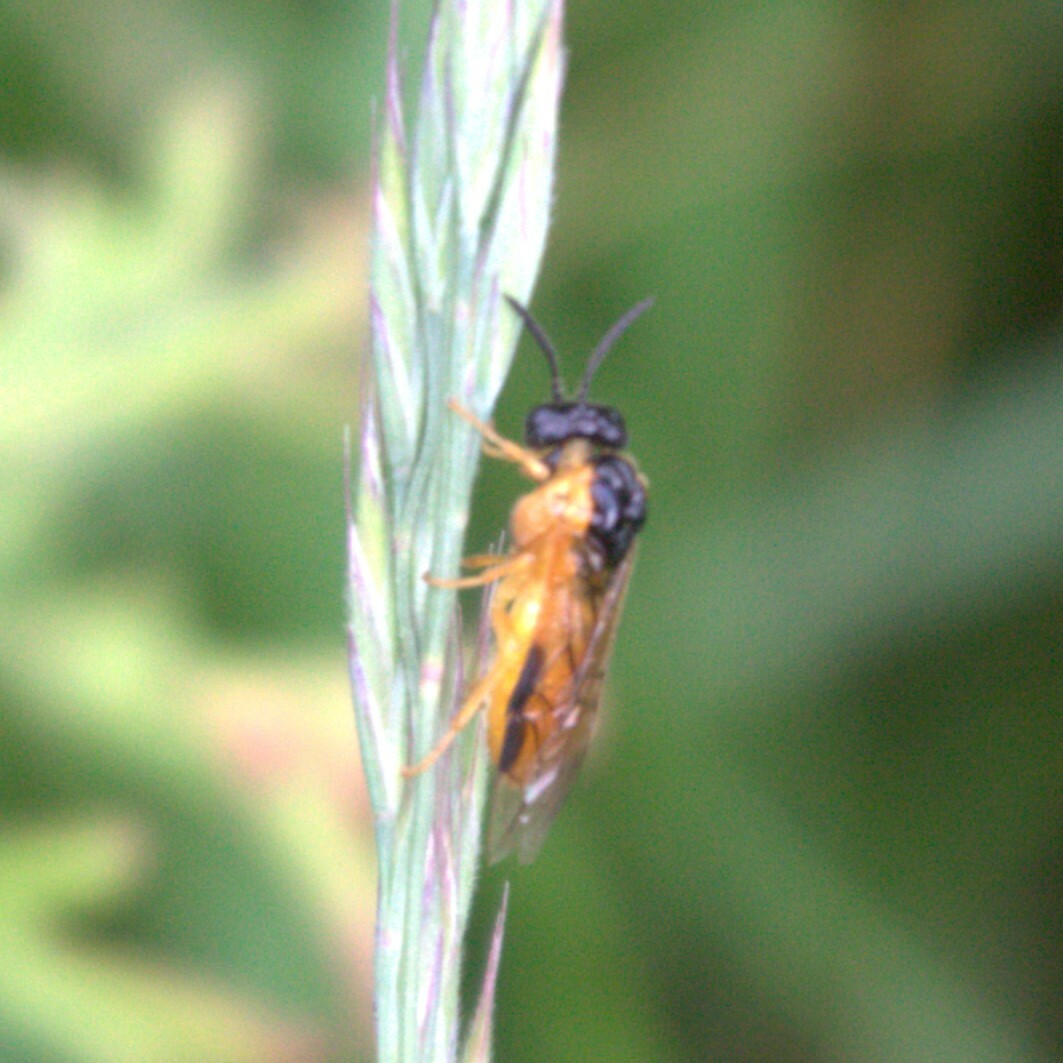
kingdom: Animalia
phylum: Arthropoda
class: Insecta
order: Hymenoptera
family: Tenthredinidae
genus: Selandria
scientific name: Selandria serva
